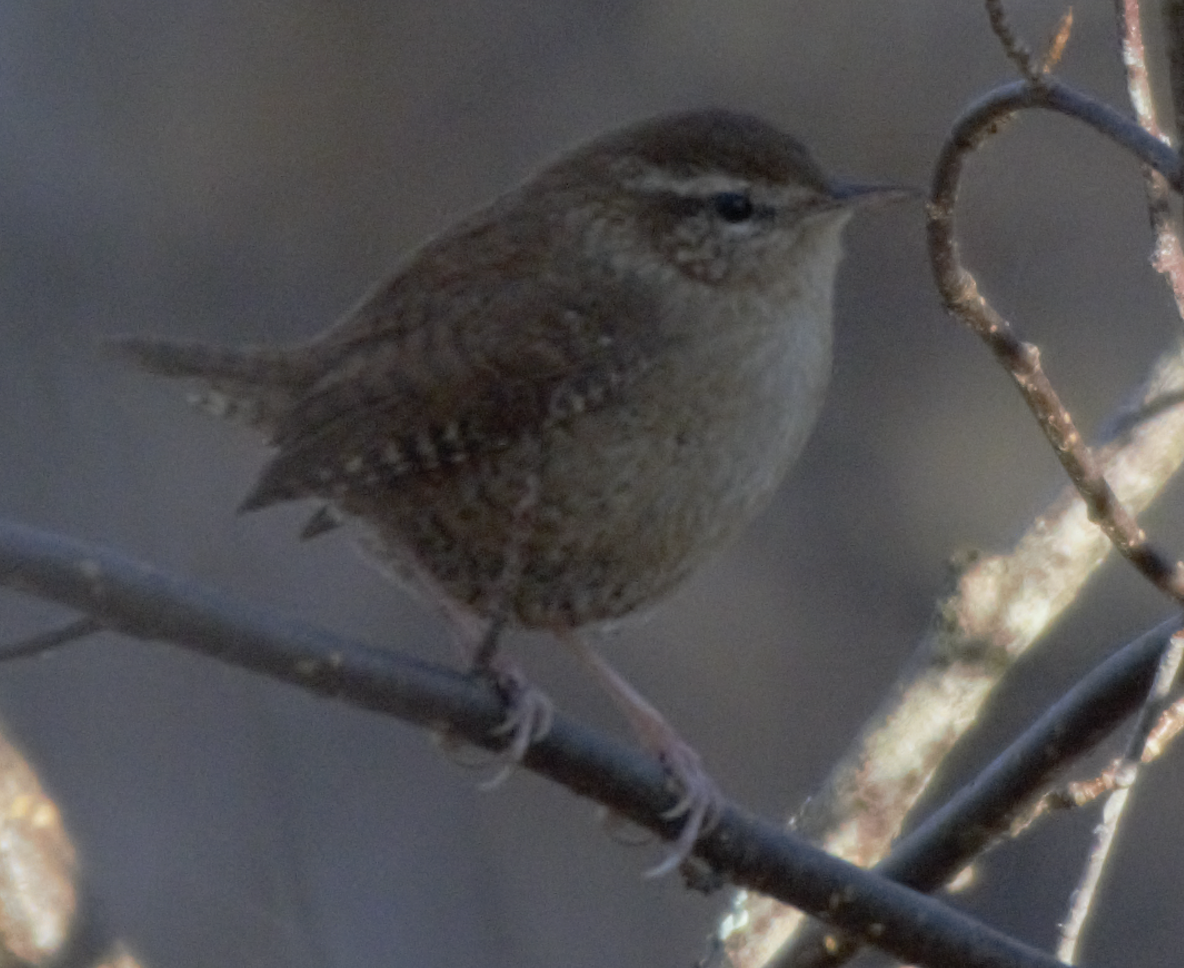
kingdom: Animalia
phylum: Chordata
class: Aves
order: Passeriformes
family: Troglodytidae
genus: Troglodytes
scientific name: Troglodytes troglodytes
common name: Eurasian wren
